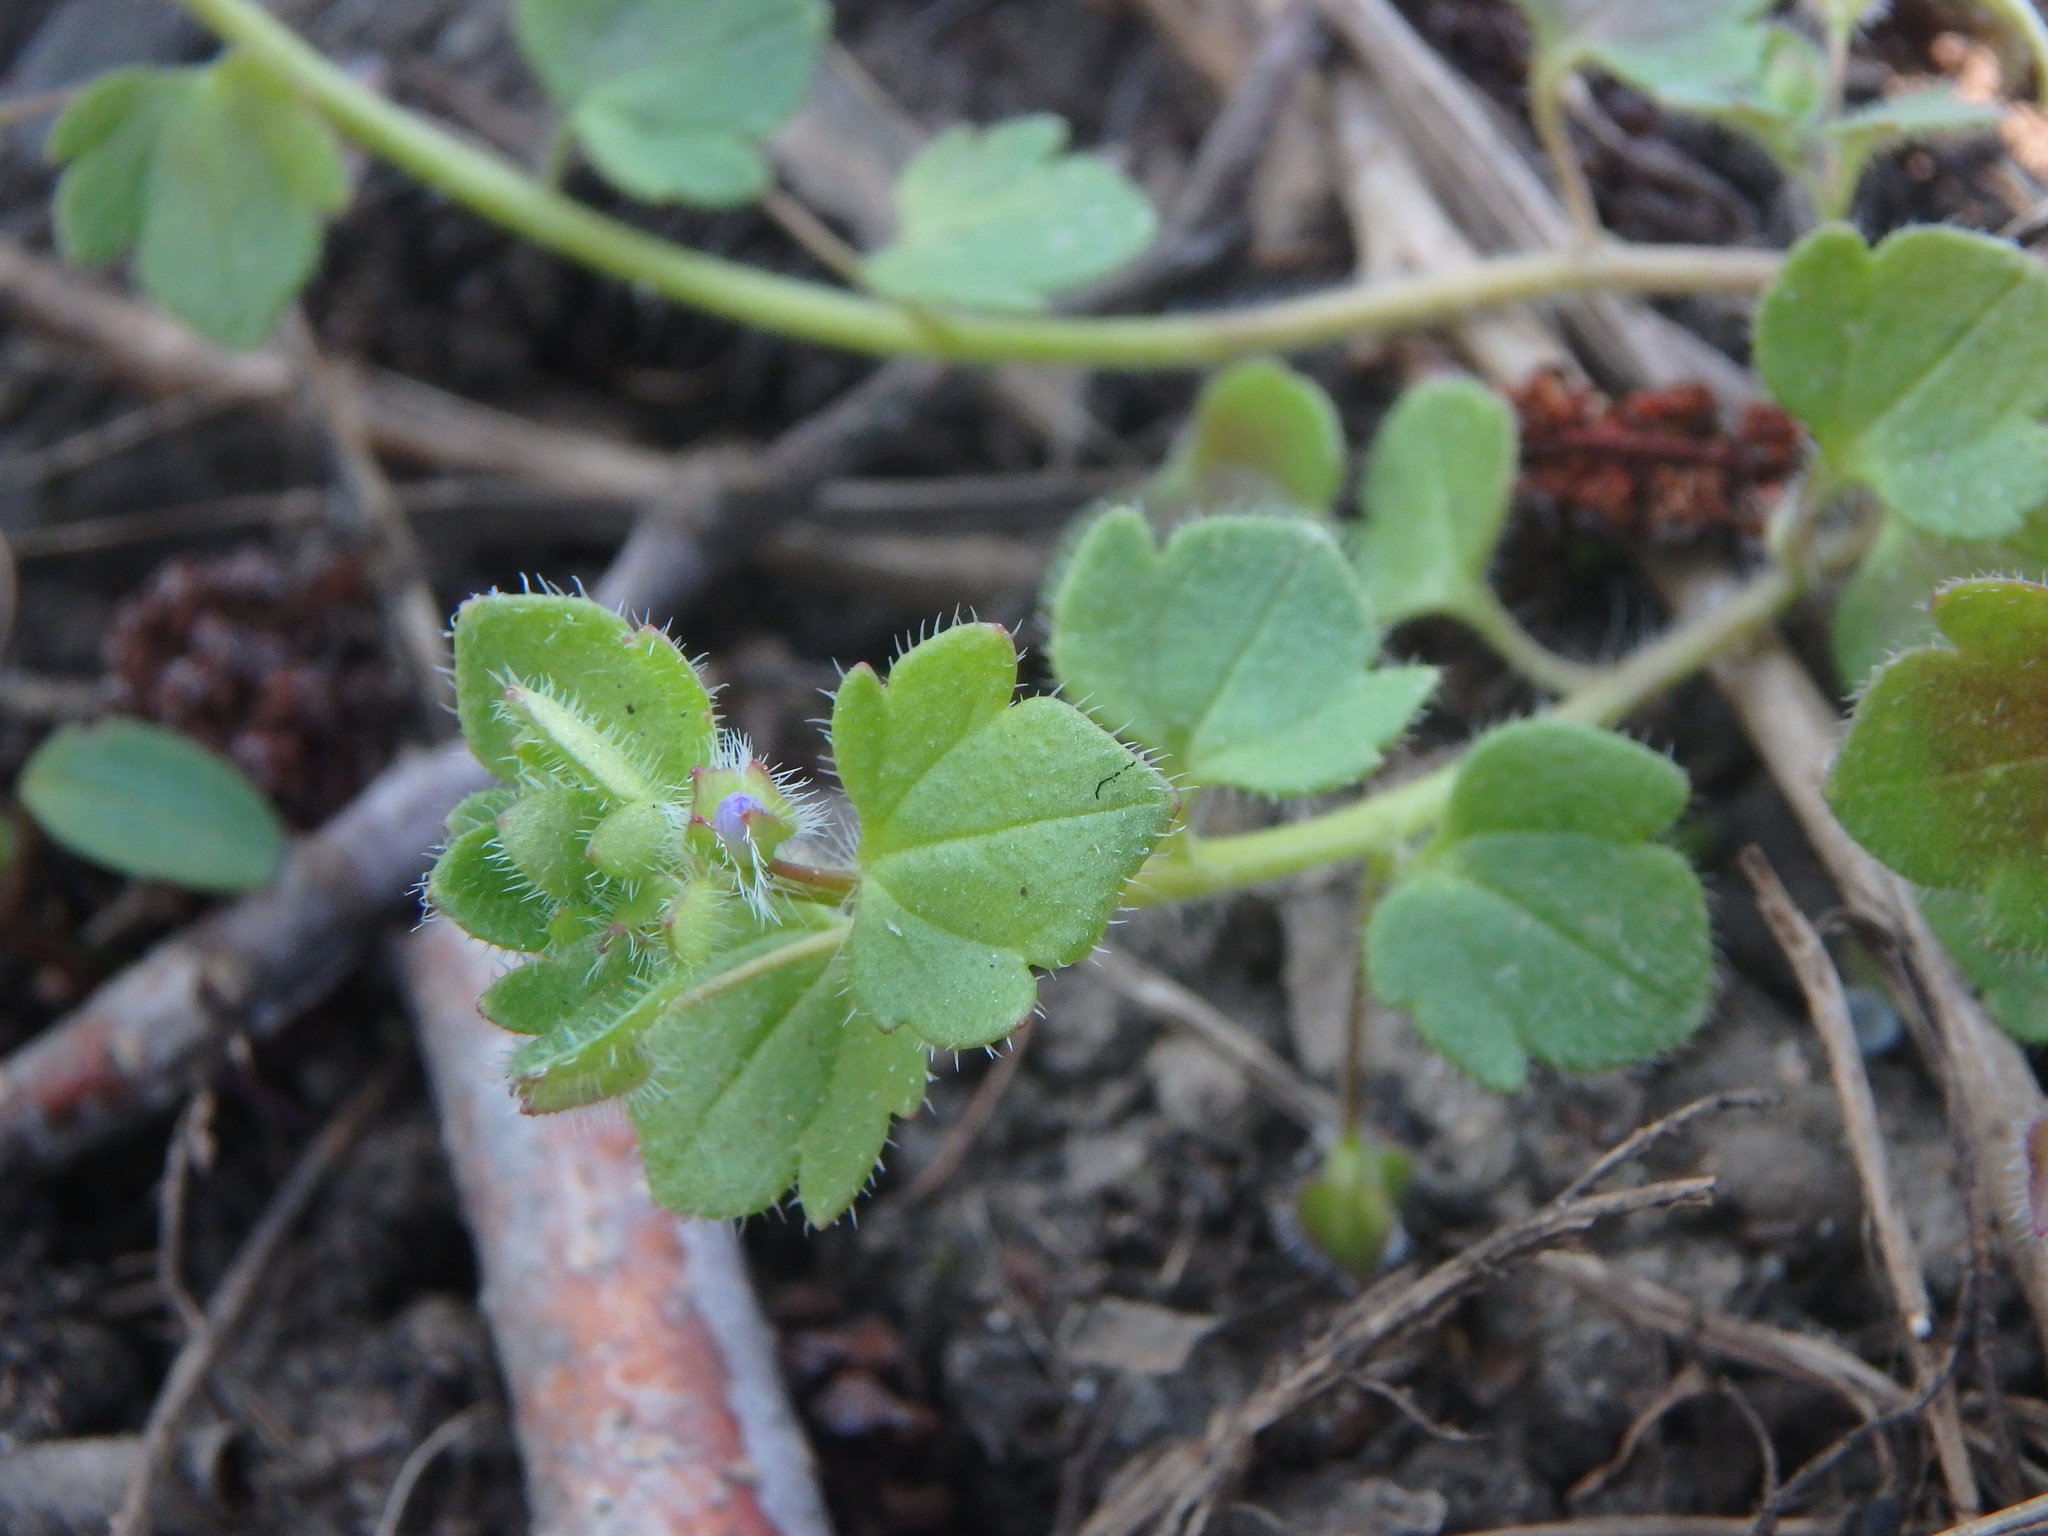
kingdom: Plantae
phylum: Tracheophyta
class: Magnoliopsida
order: Lamiales
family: Plantaginaceae
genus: Veronica
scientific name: Veronica hederifolia
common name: Ivy-leaved speedwell
